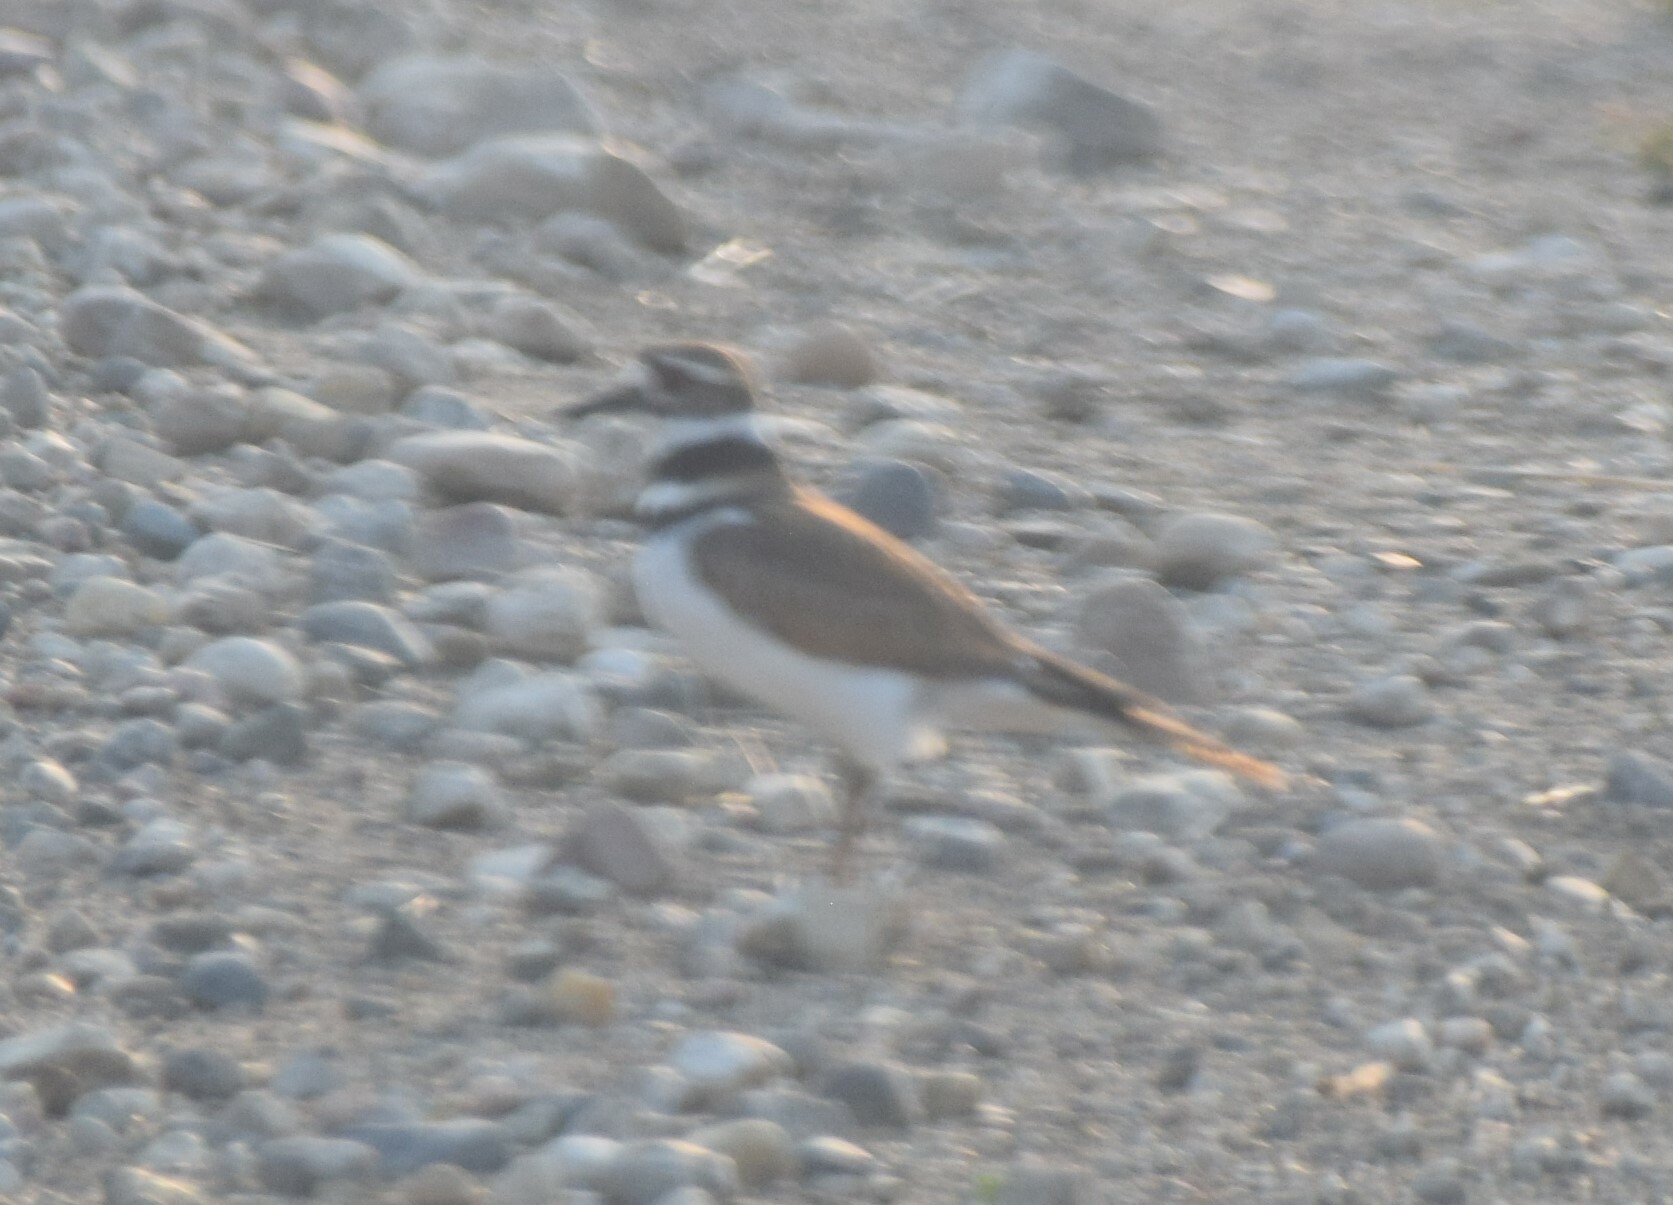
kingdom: Animalia
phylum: Chordata
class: Aves
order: Charadriiformes
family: Charadriidae
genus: Charadrius
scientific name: Charadrius vociferus
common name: Killdeer
